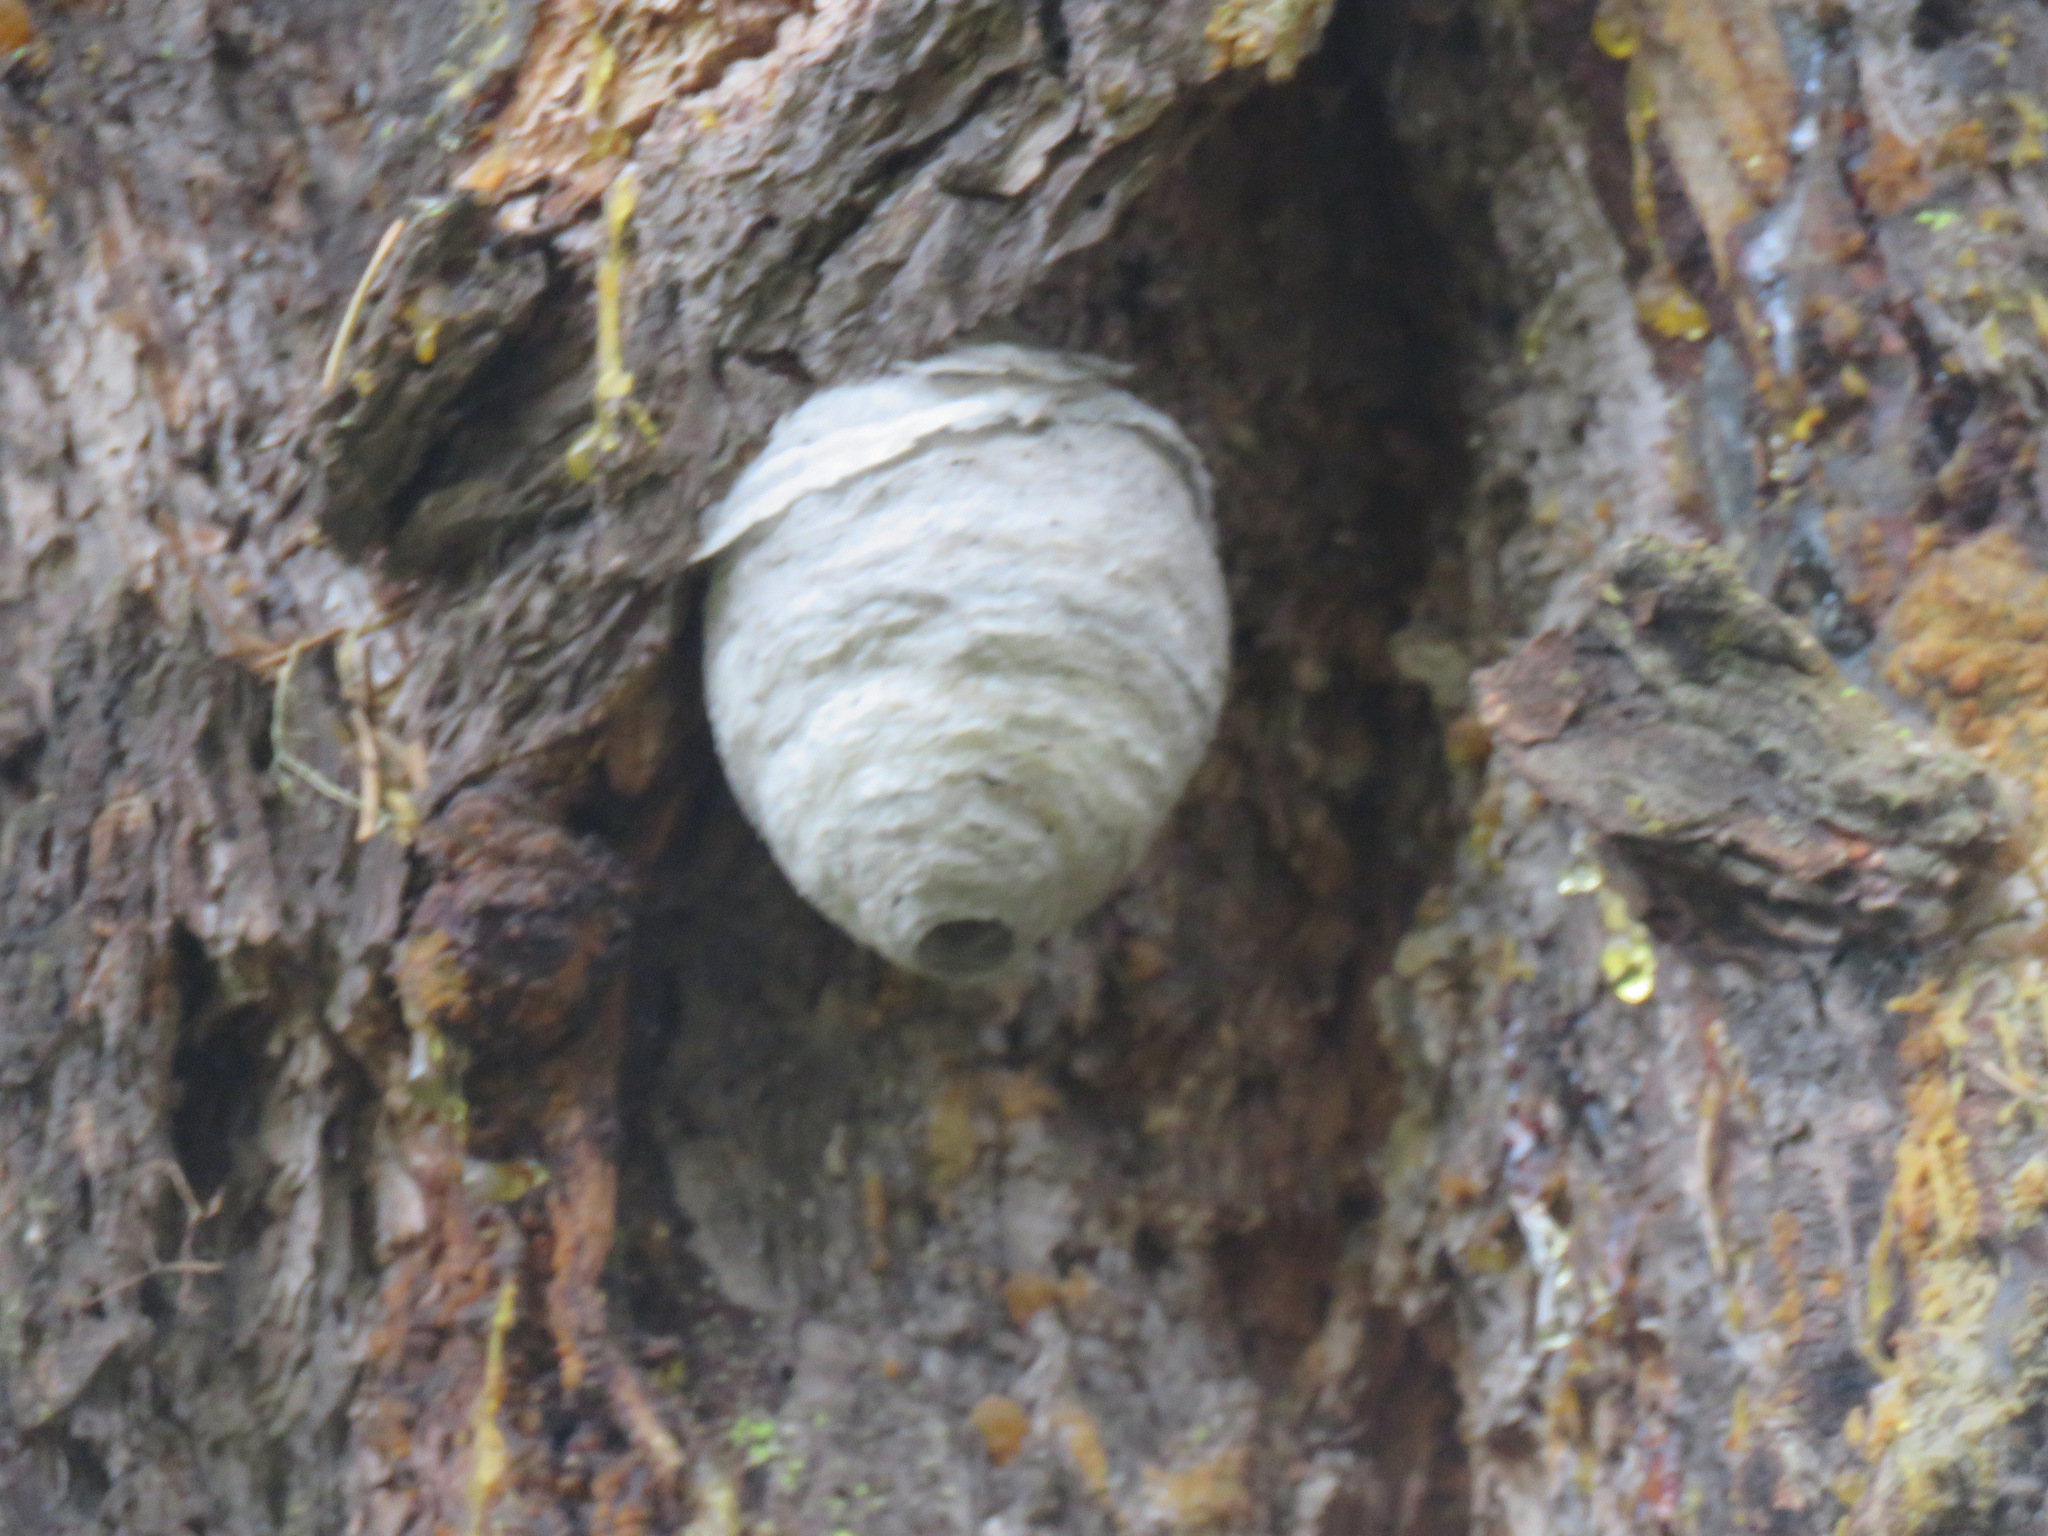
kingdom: Animalia
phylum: Arthropoda
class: Insecta
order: Hymenoptera
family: Vespidae
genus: Dolichovespula
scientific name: Dolichovespula
